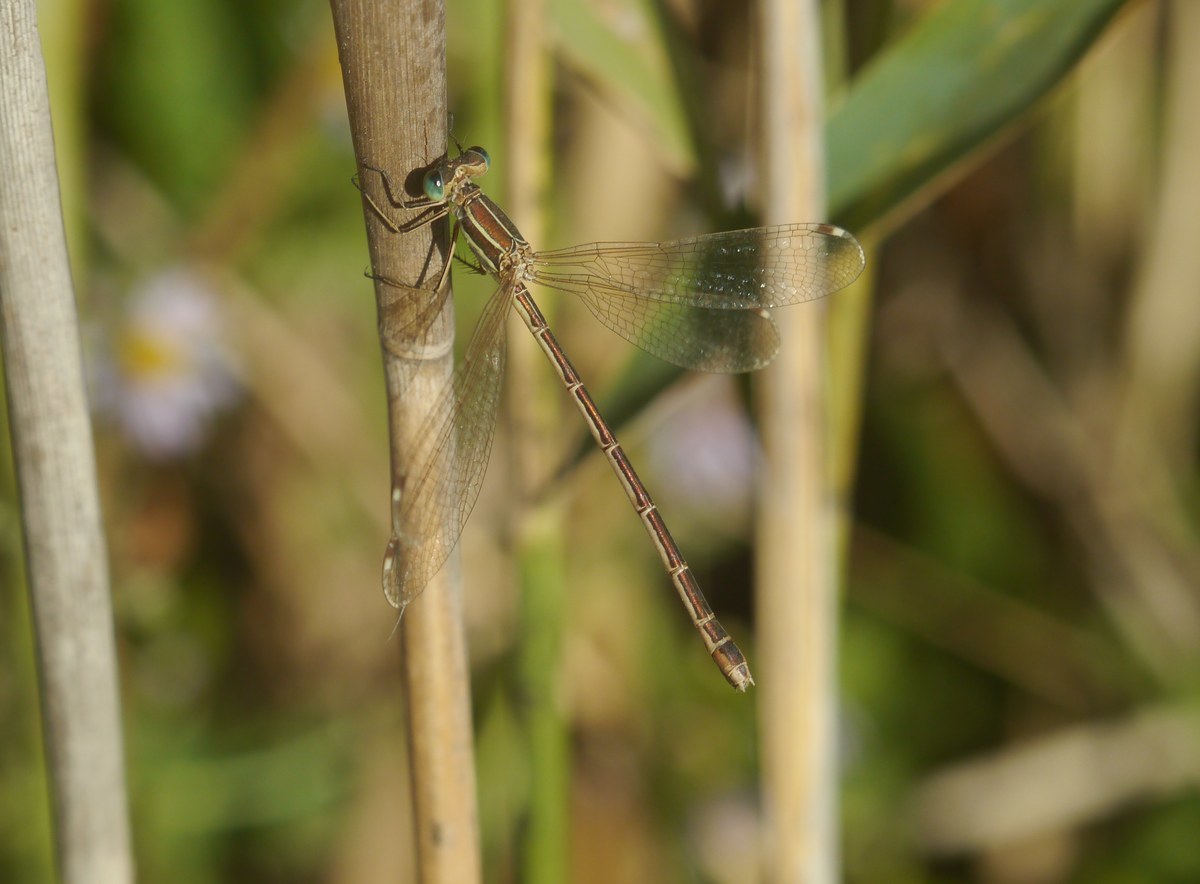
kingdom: Animalia
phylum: Arthropoda
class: Insecta
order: Odonata
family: Lestidae
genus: Lestes
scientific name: Lestes barbarus
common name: Migrant spreadwing
